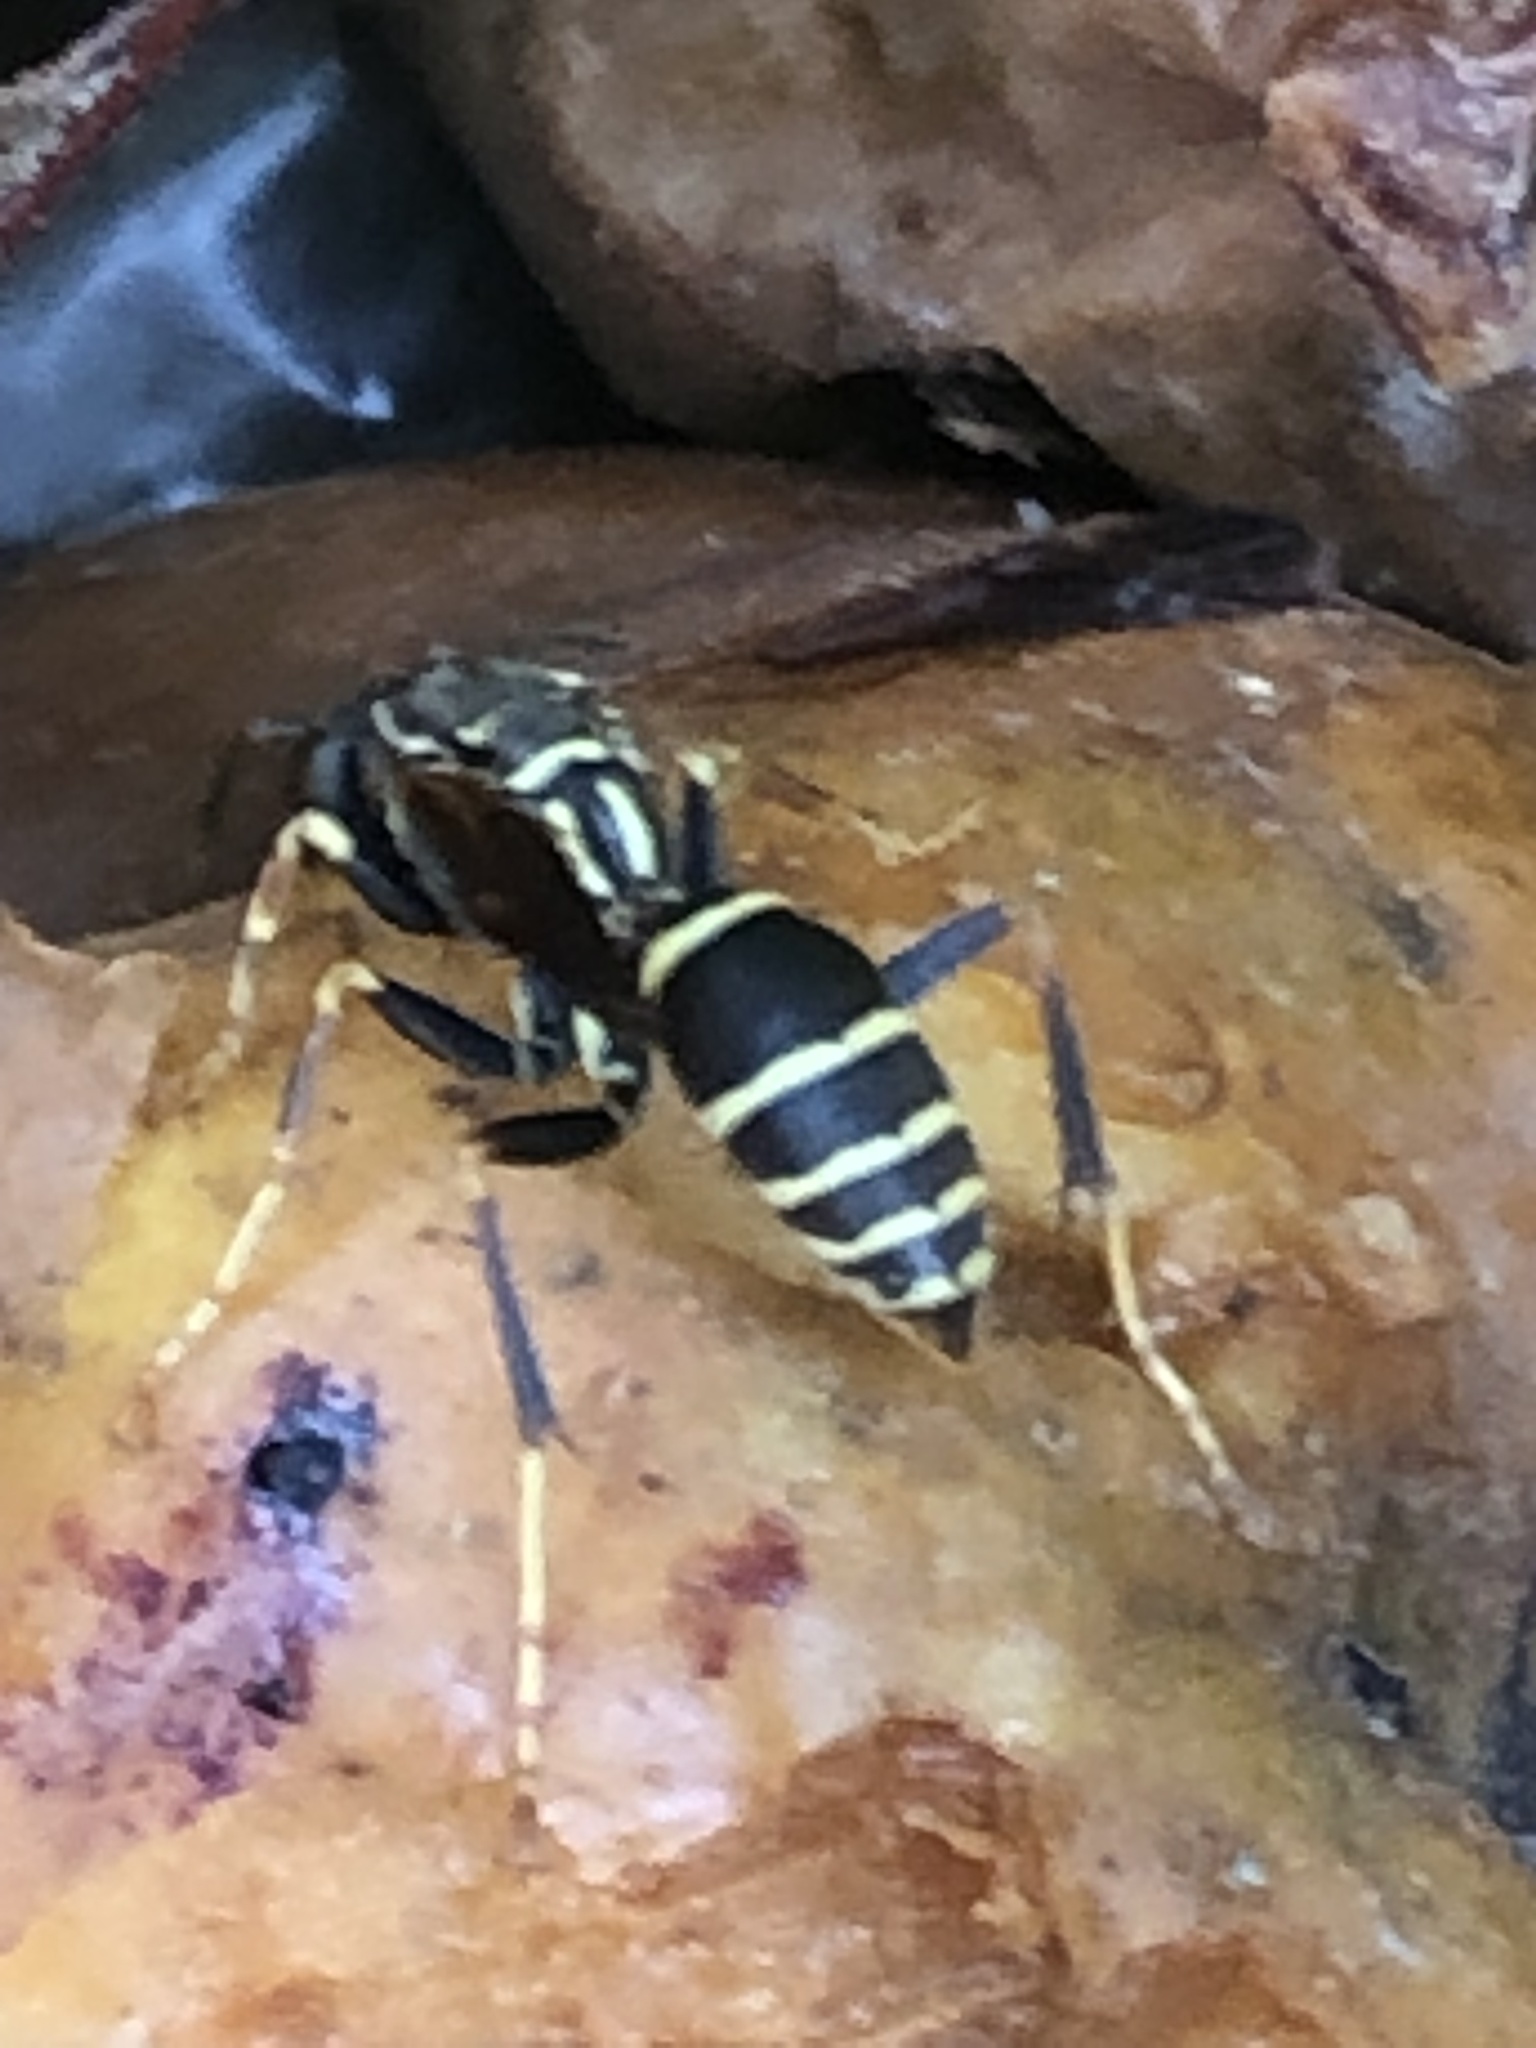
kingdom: Animalia
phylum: Arthropoda
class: Insecta
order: Hymenoptera
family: Eumenidae
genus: Polistes
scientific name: Polistes fuscatus
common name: Dark paper wasp
